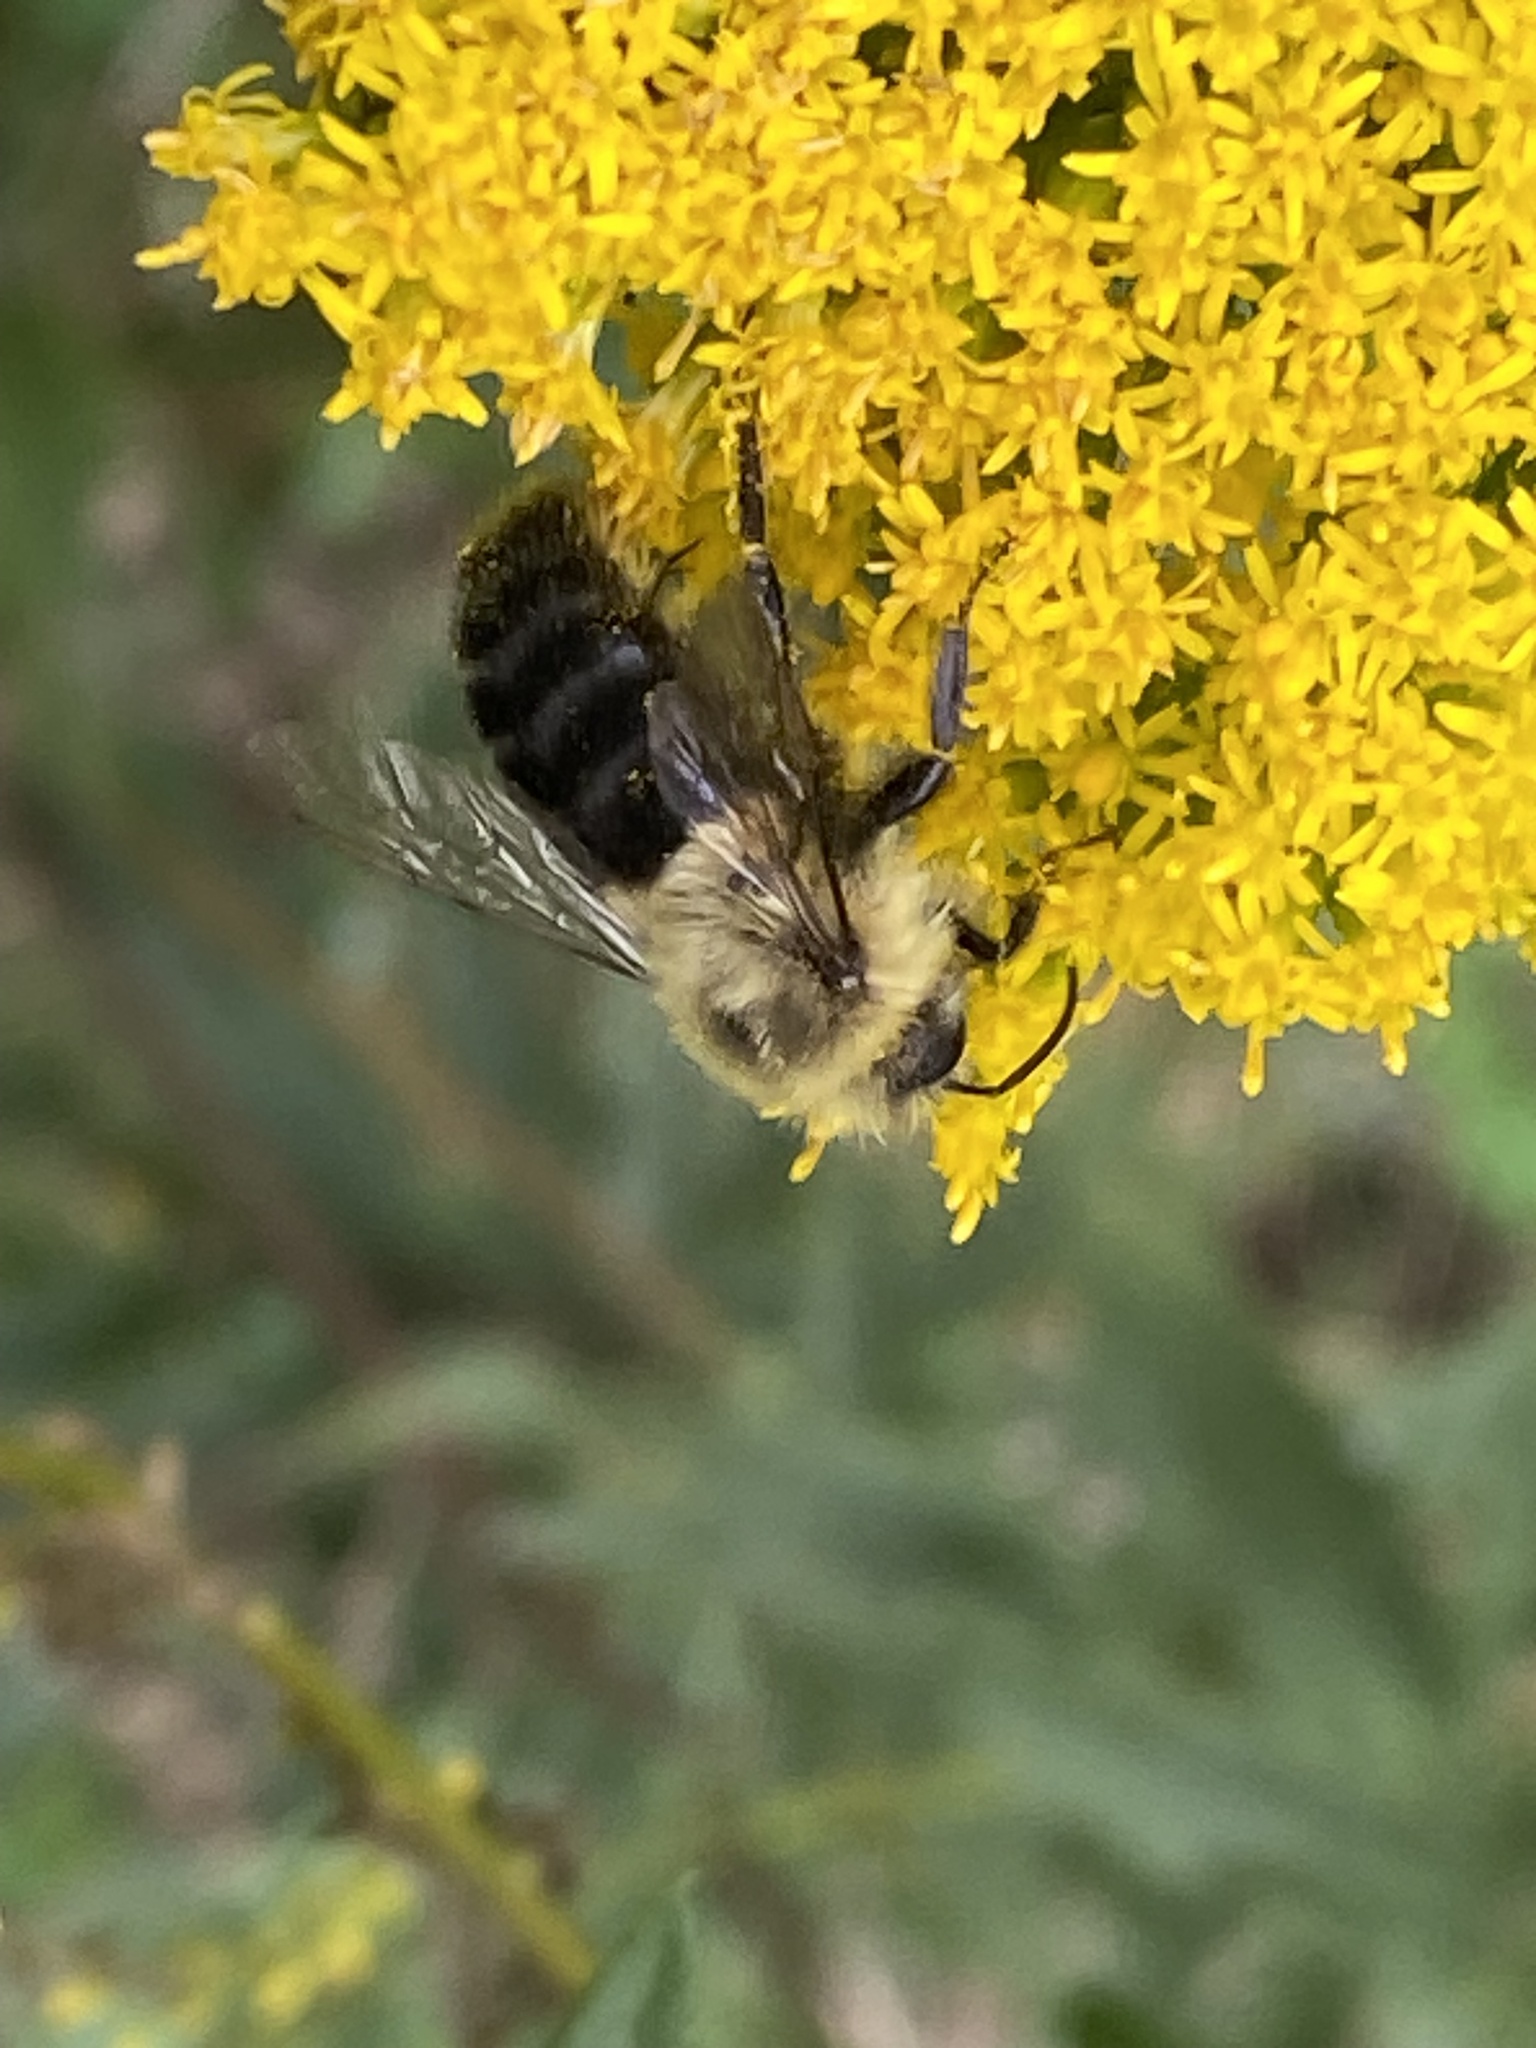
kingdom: Animalia
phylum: Arthropoda
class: Insecta
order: Hymenoptera
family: Apidae
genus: Bombus
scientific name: Bombus impatiens
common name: Common eastern bumble bee
